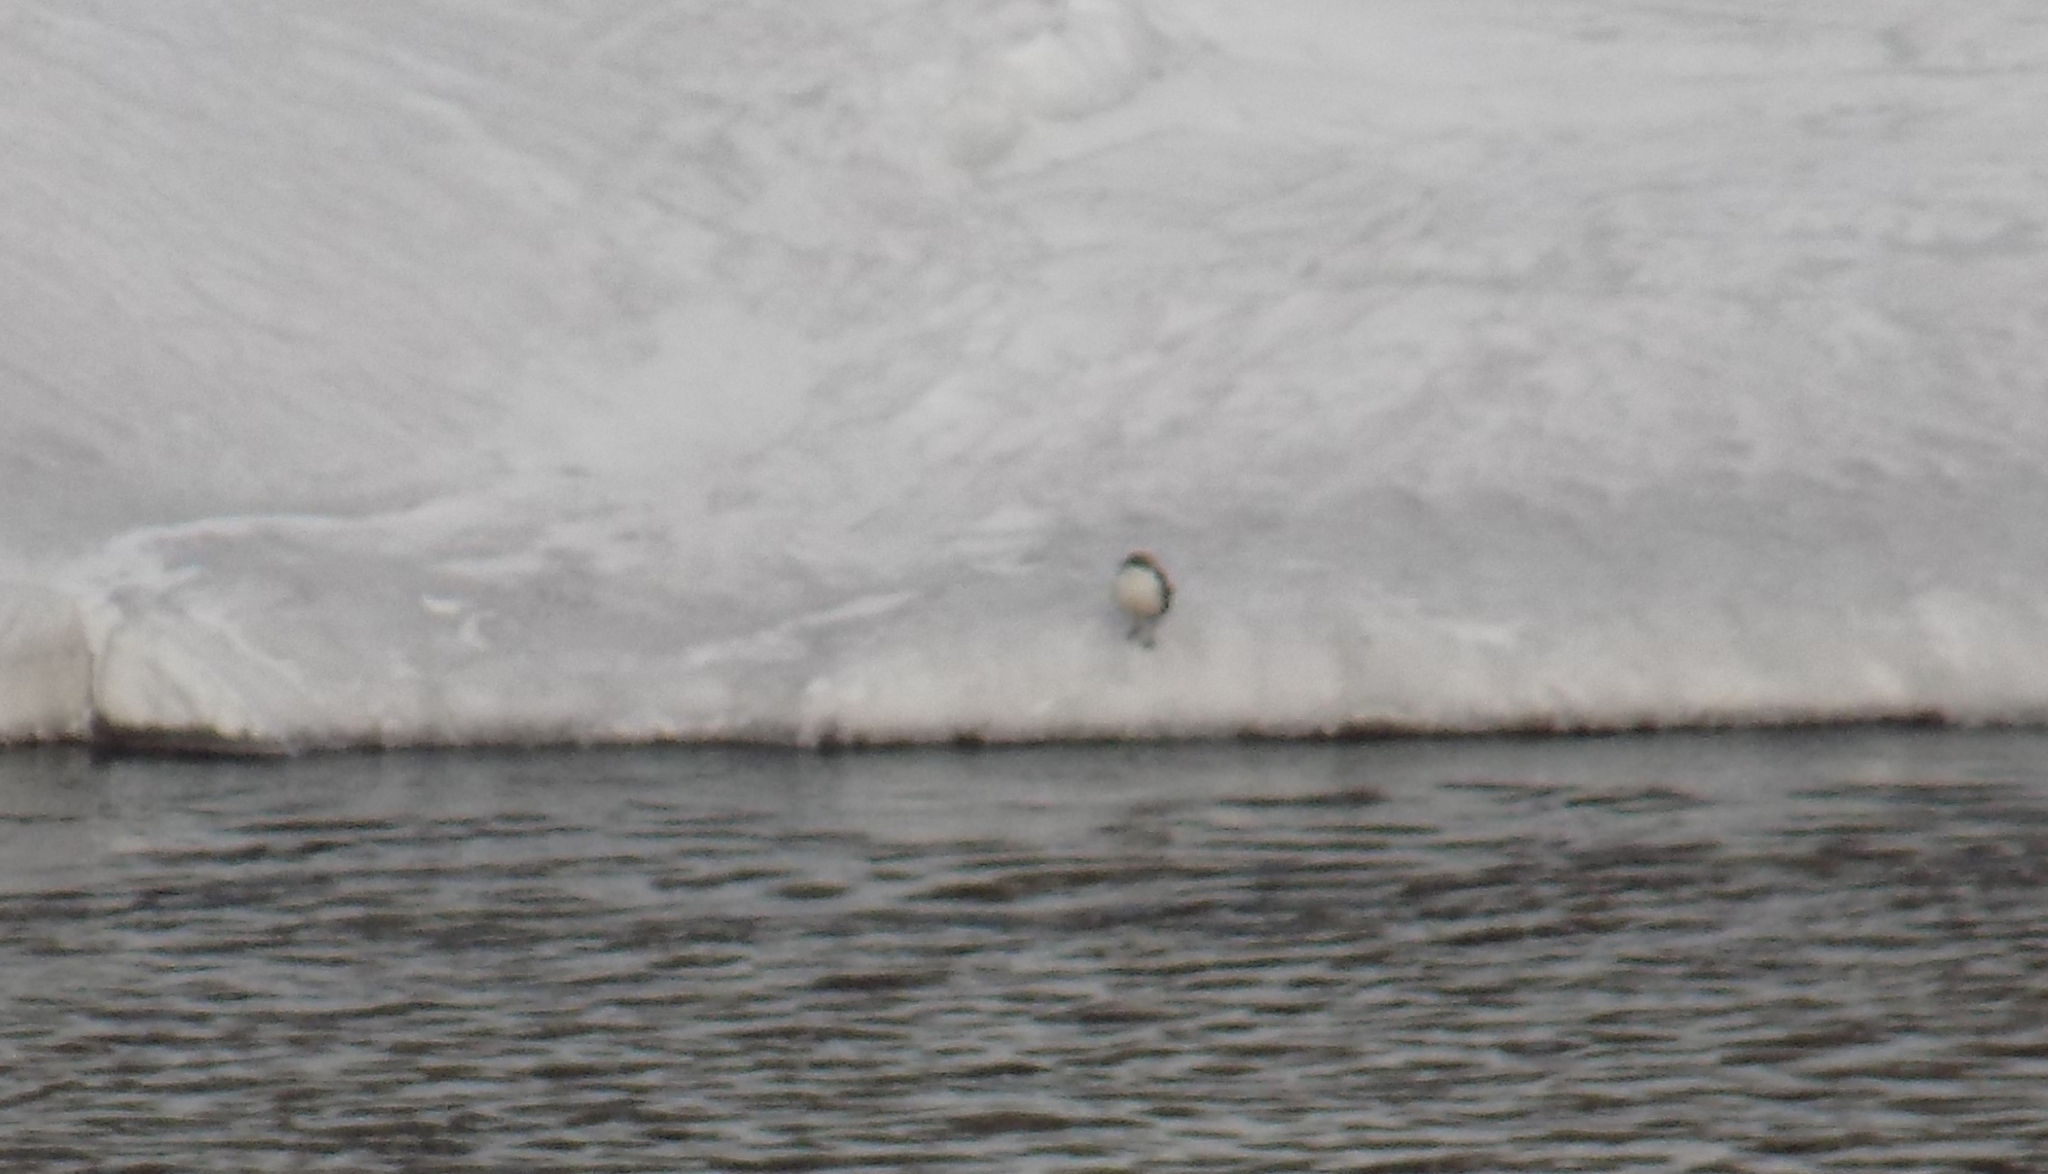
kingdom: Animalia
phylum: Chordata
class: Aves
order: Passeriformes
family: Cinclidae
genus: Cinclus
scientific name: Cinclus cinclus
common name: White-throated dipper
